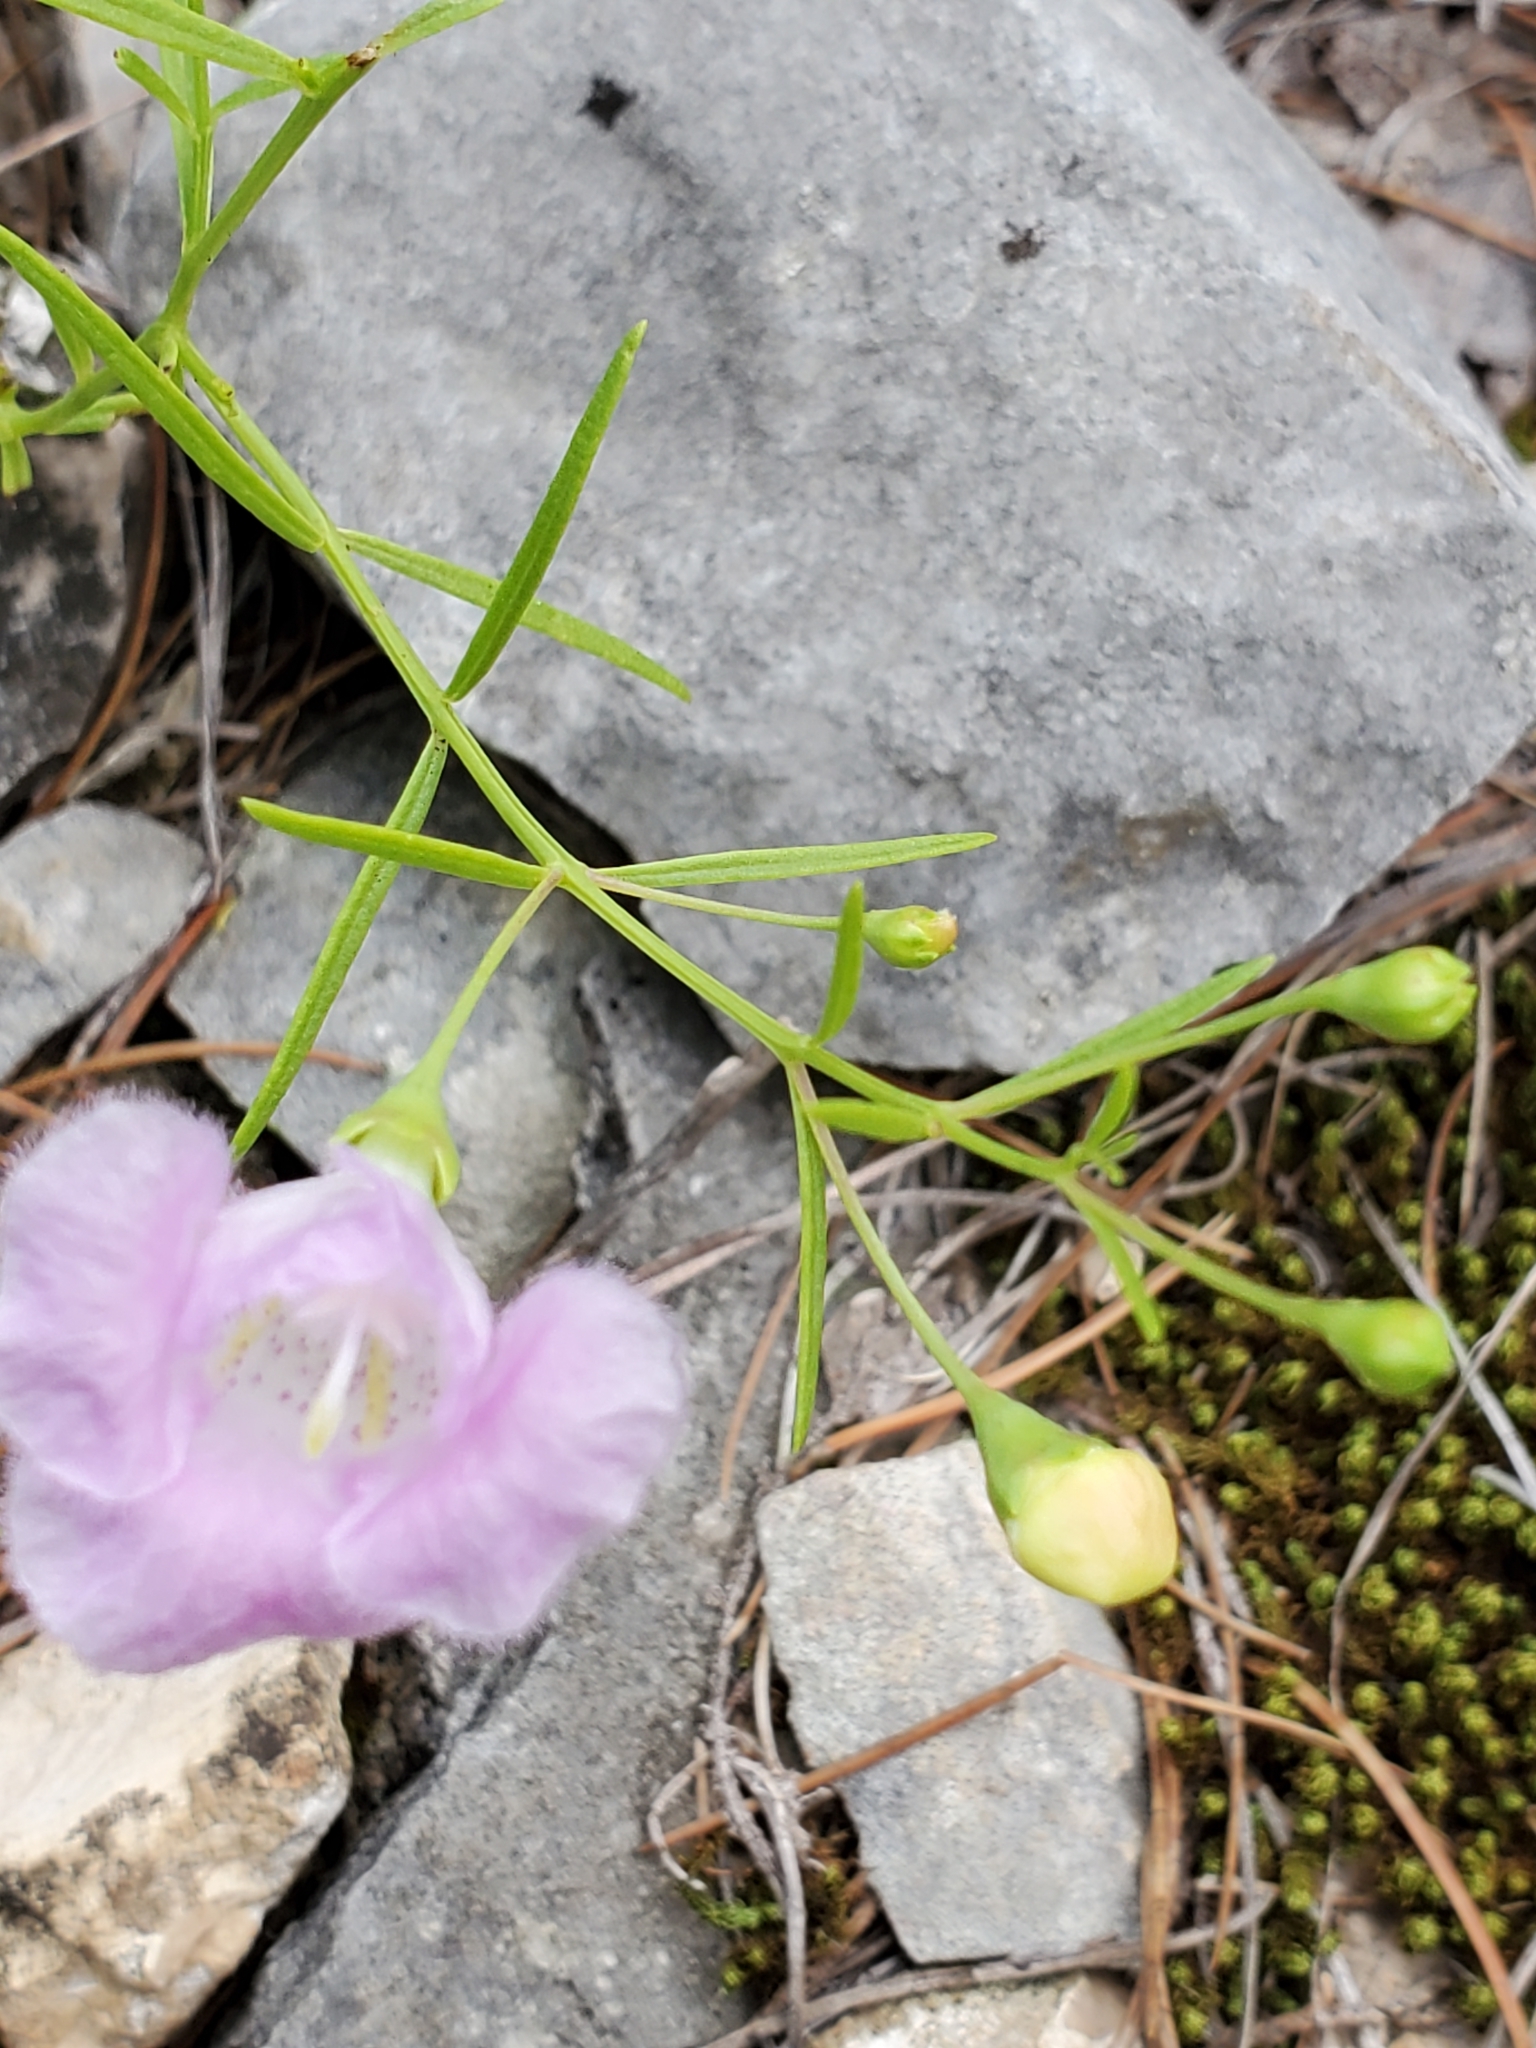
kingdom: Plantae
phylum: Tracheophyta
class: Magnoliopsida
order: Lamiales
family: Orobanchaceae
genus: Agalinis
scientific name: Agalinis edwardsiana
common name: Plateau-gerardia
